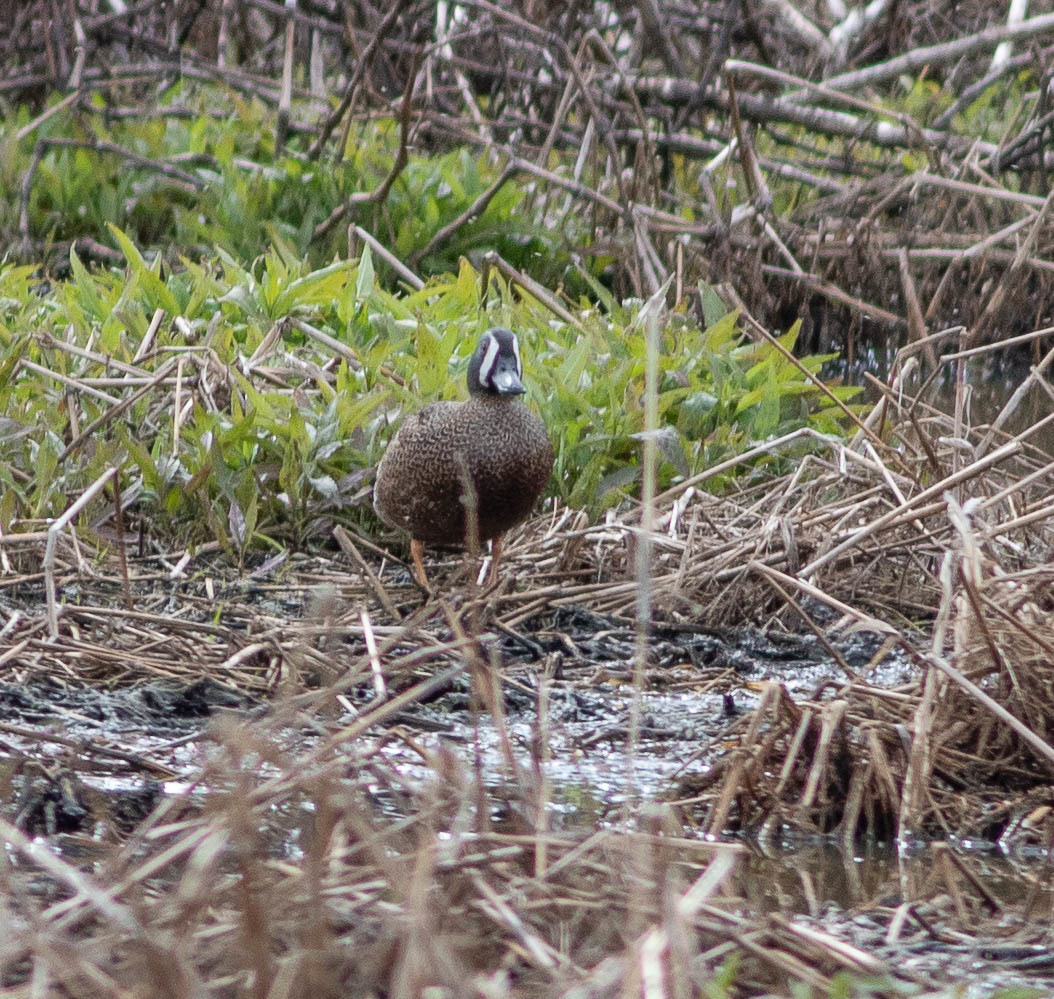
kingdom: Animalia
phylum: Chordata
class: Aves
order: Anseriformes
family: Anatidae
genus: Spatula
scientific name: Spatula discors
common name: Blue-winged teal
